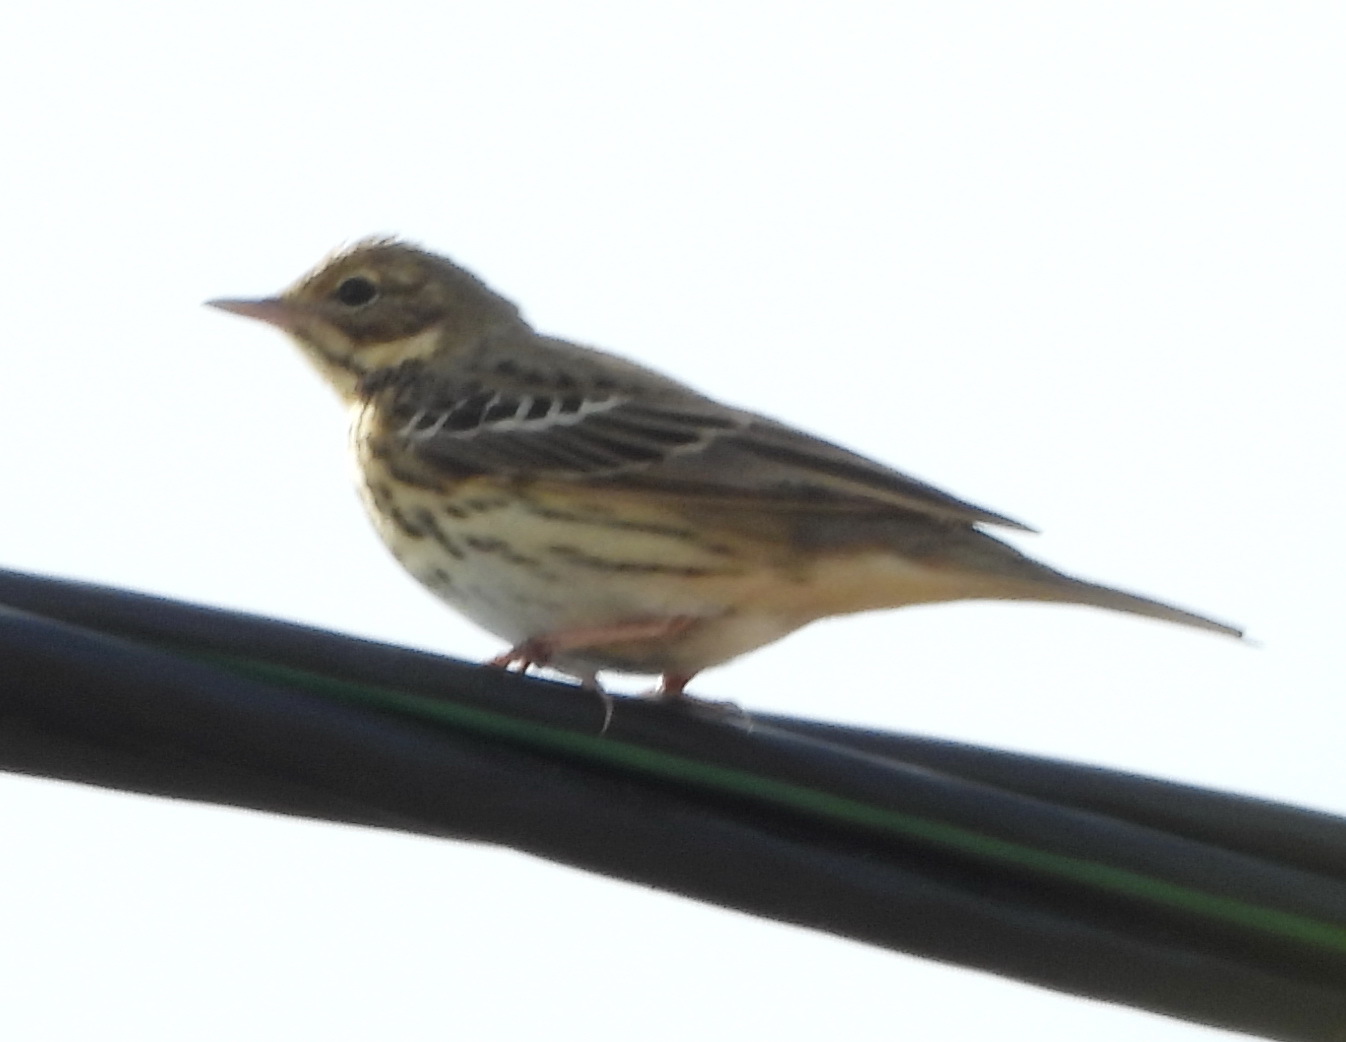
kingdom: Animalia
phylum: Chordata
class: Aves
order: Passeriformes
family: Motacillidae
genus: Anthus
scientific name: Anthus trivialis
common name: Tree pipit
